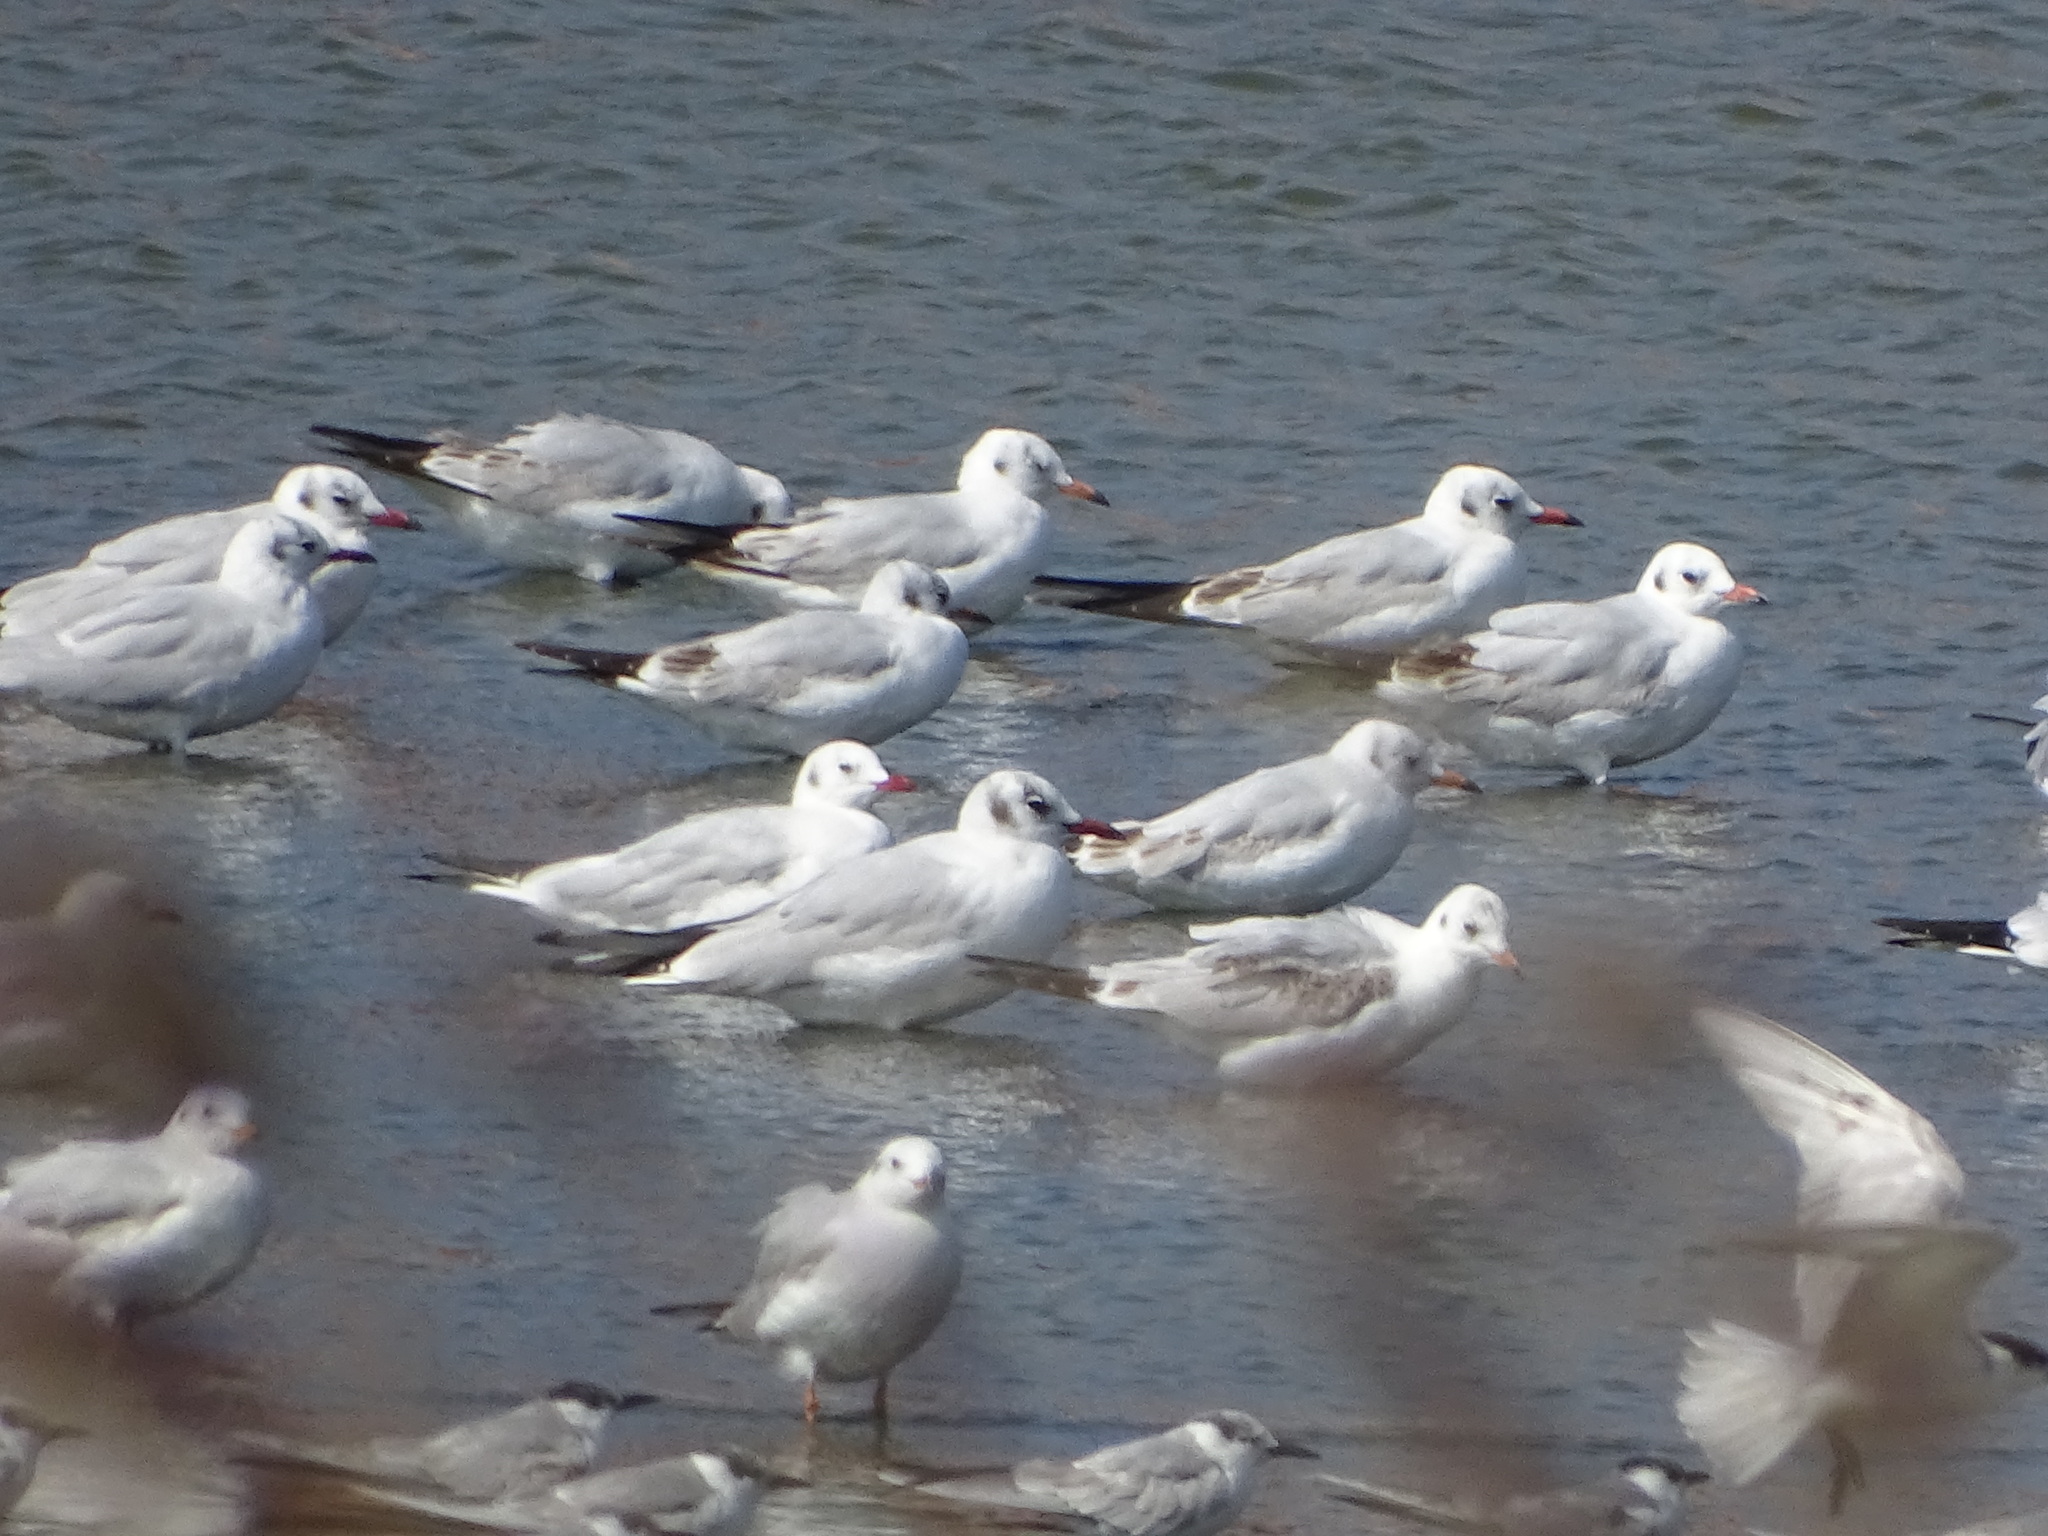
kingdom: Animalia
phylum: Chordata
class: Aves
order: Charadriiformes
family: Laridae
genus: Chroicocephalus
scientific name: Chroicocephalus ridibundus
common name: Black-headed gull
